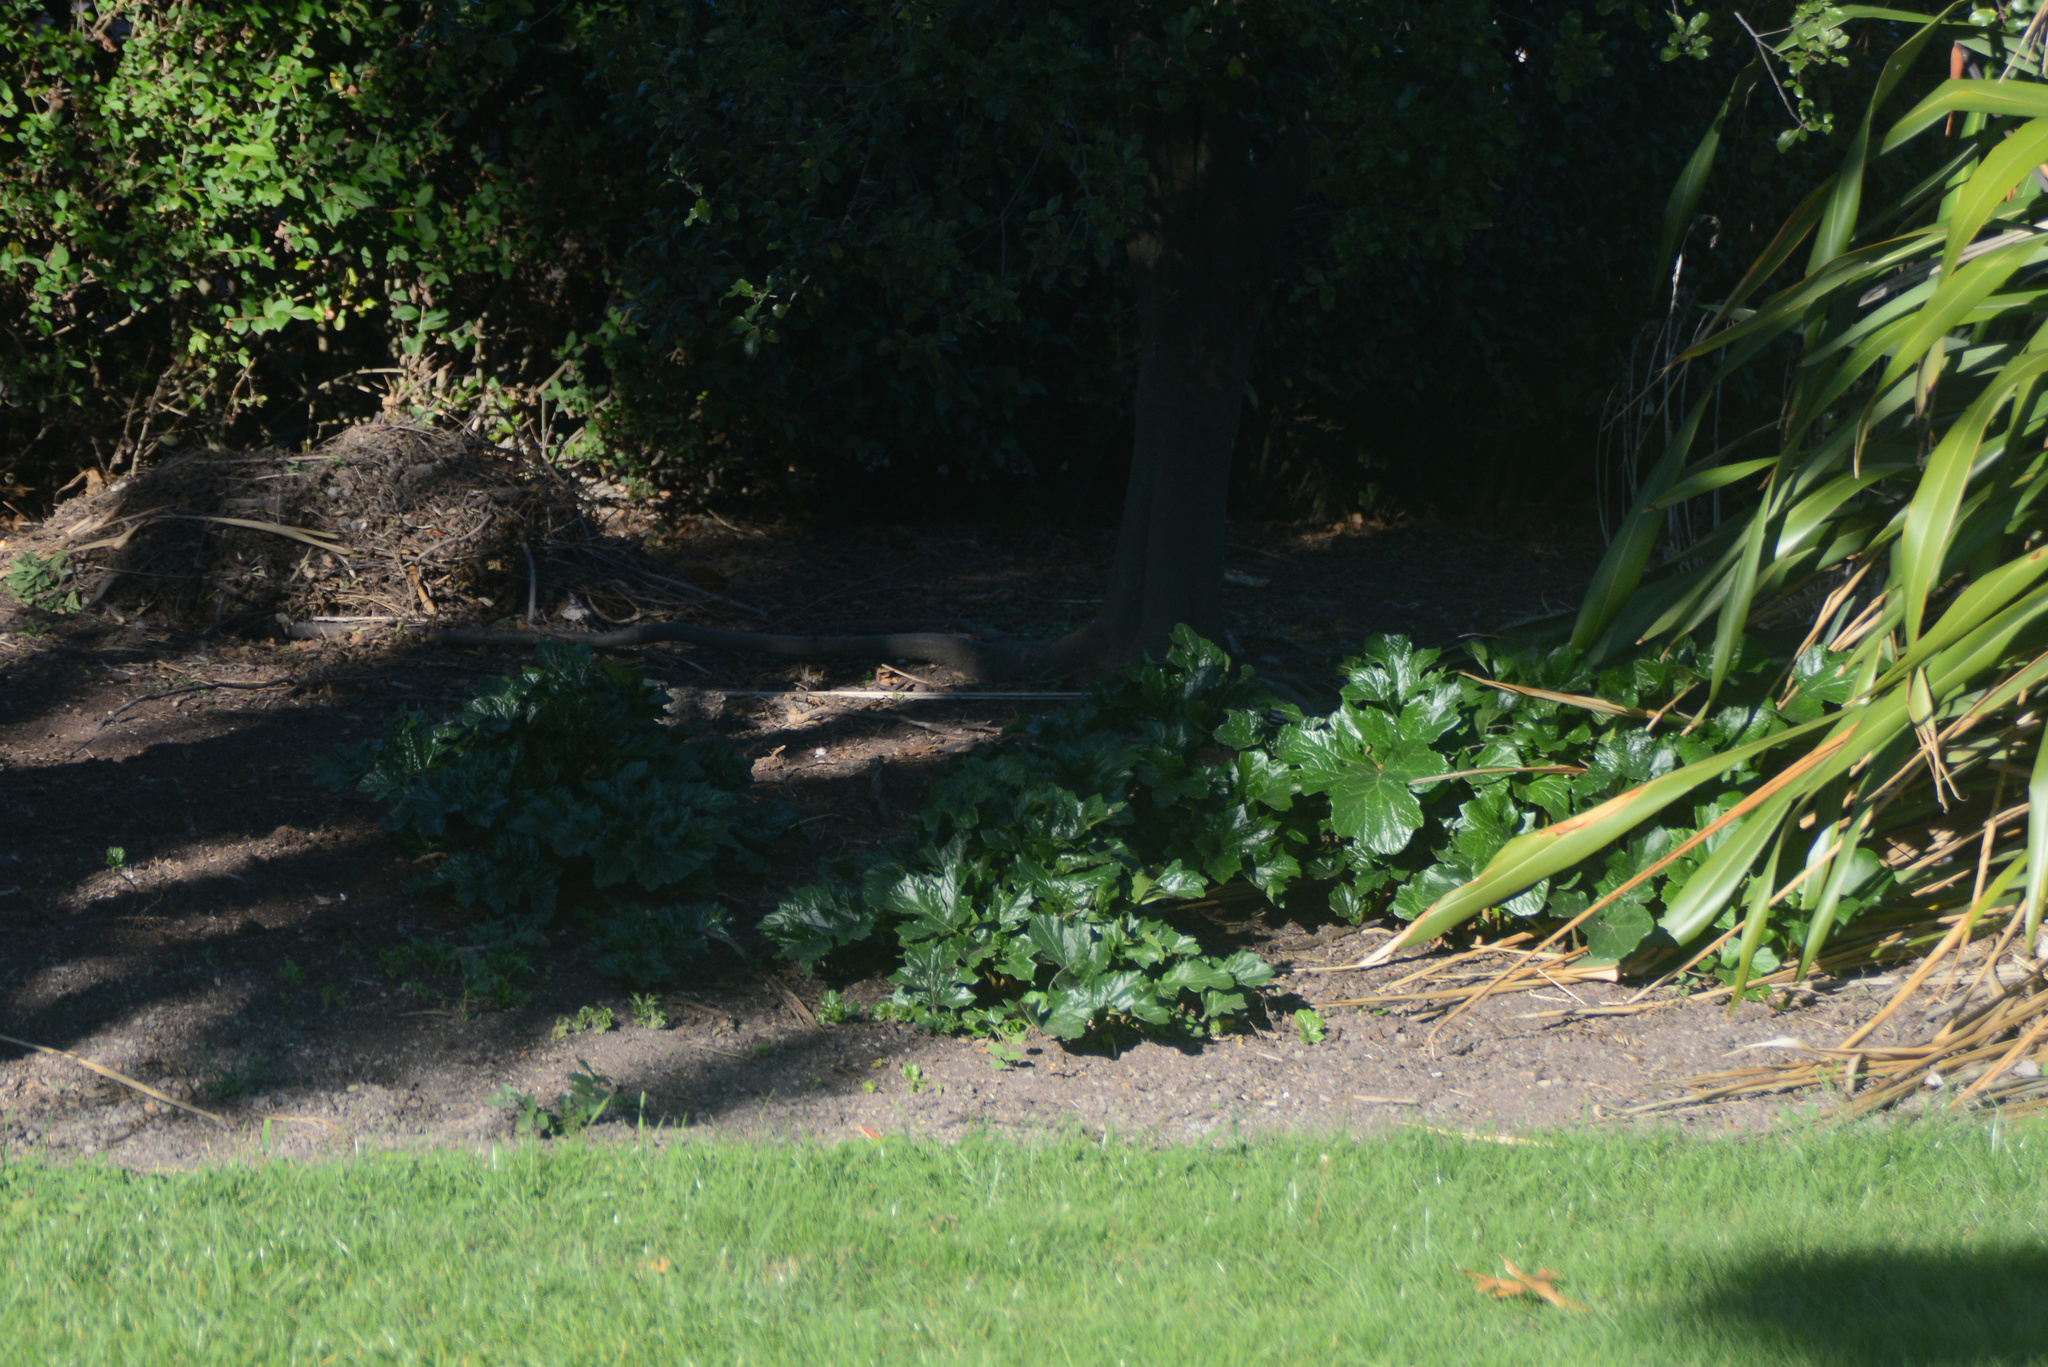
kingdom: Plantae
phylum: Tracheophyta
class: Magnoliopsida
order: Lamiales
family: Acanthaceae
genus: Acanthus
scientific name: Acanthus mollis
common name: Bear's-breech
